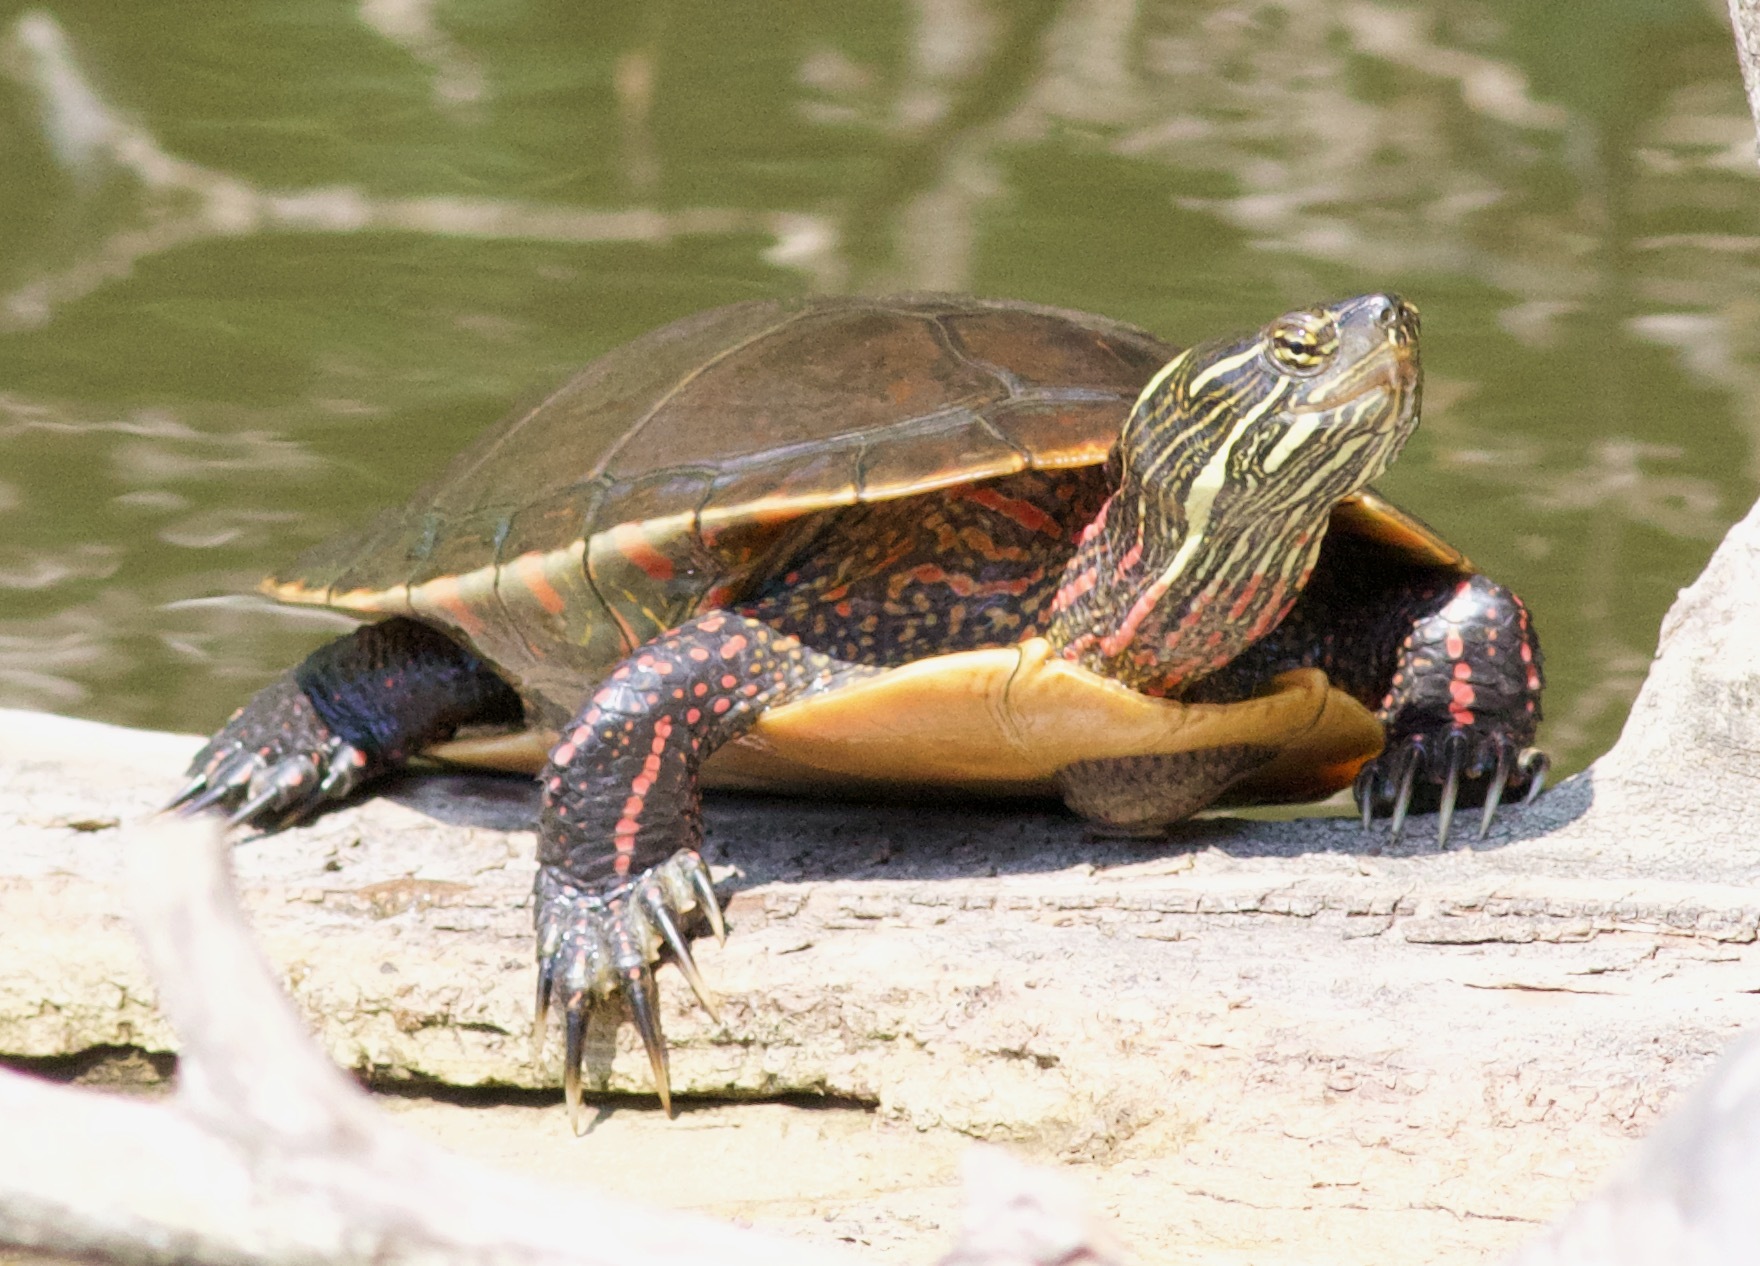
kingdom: Animalia
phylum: Chordata
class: Testudines
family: Emydidae
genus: Chrysemys
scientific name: Chrysemys picta
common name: Painted turtle
